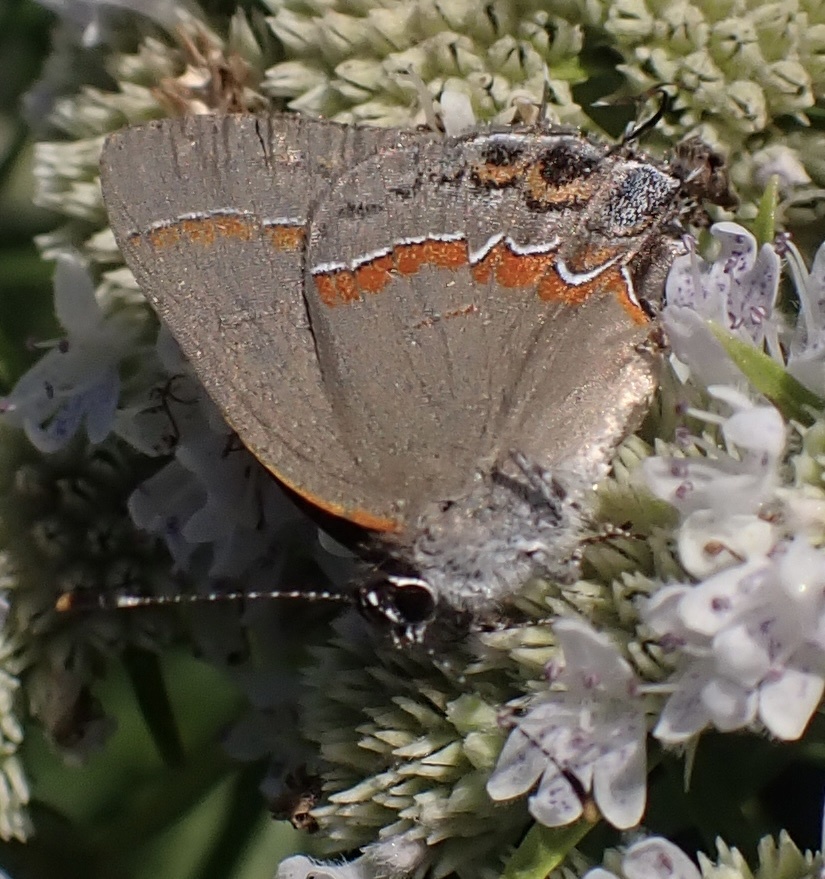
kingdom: Animalia
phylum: Arthropoda
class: Insecta
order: Lepidoptera
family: Lycaenidae
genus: Calycopis
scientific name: Calycopis cecrops
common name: Red-banded hairstreak
